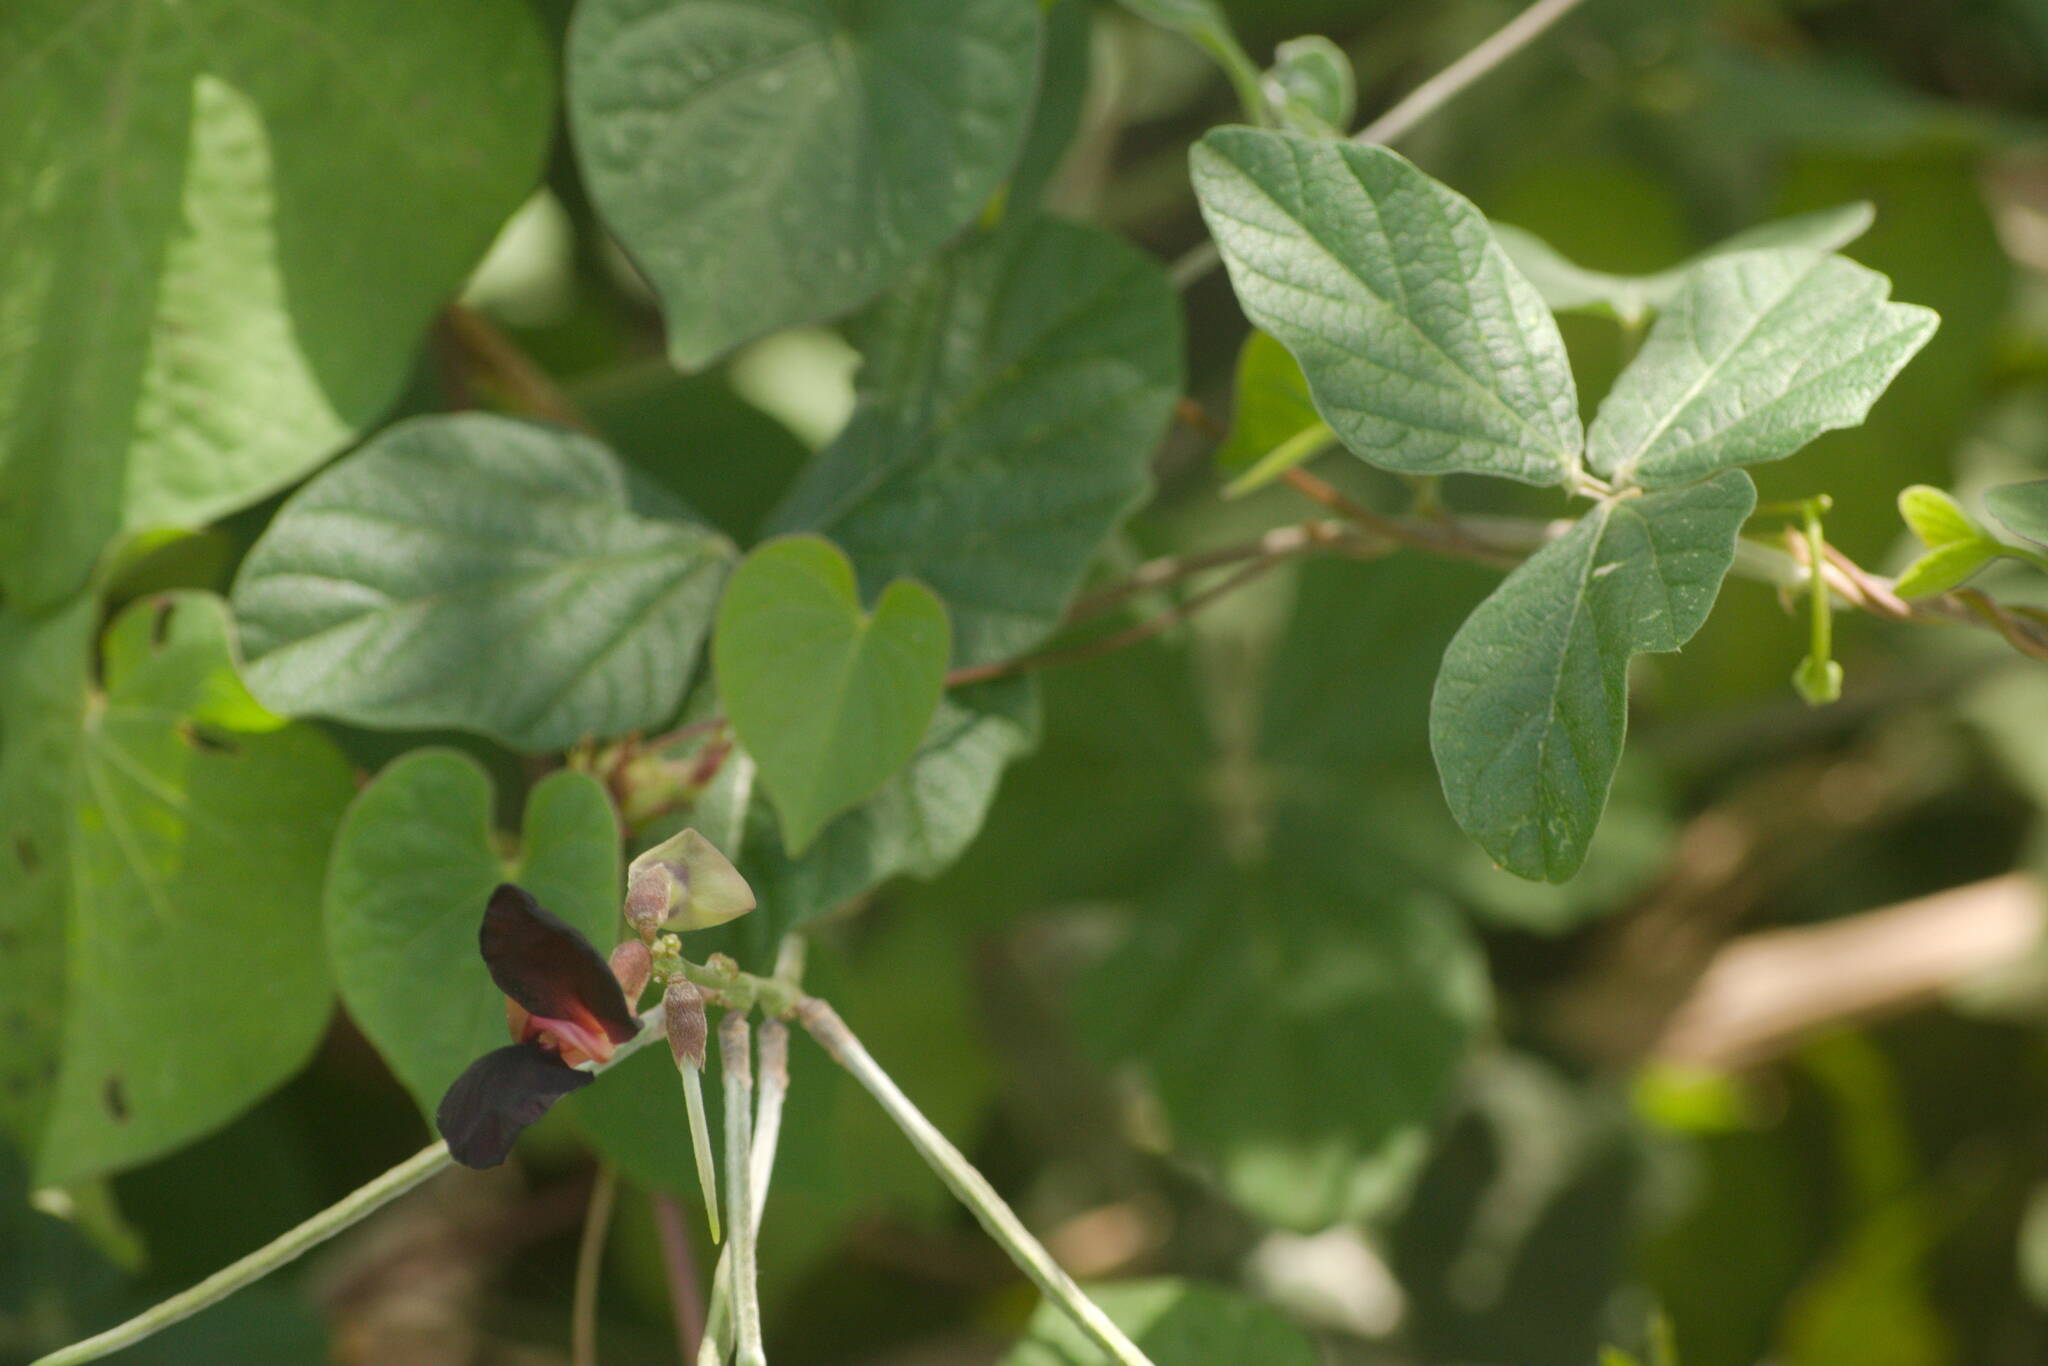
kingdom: Plantae
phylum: Tracheophyta
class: Magnoliopsida
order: Fabales
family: Fabaceae
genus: Macroptilium
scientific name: Macroptilium atropurpureum
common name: Purple bushbean
